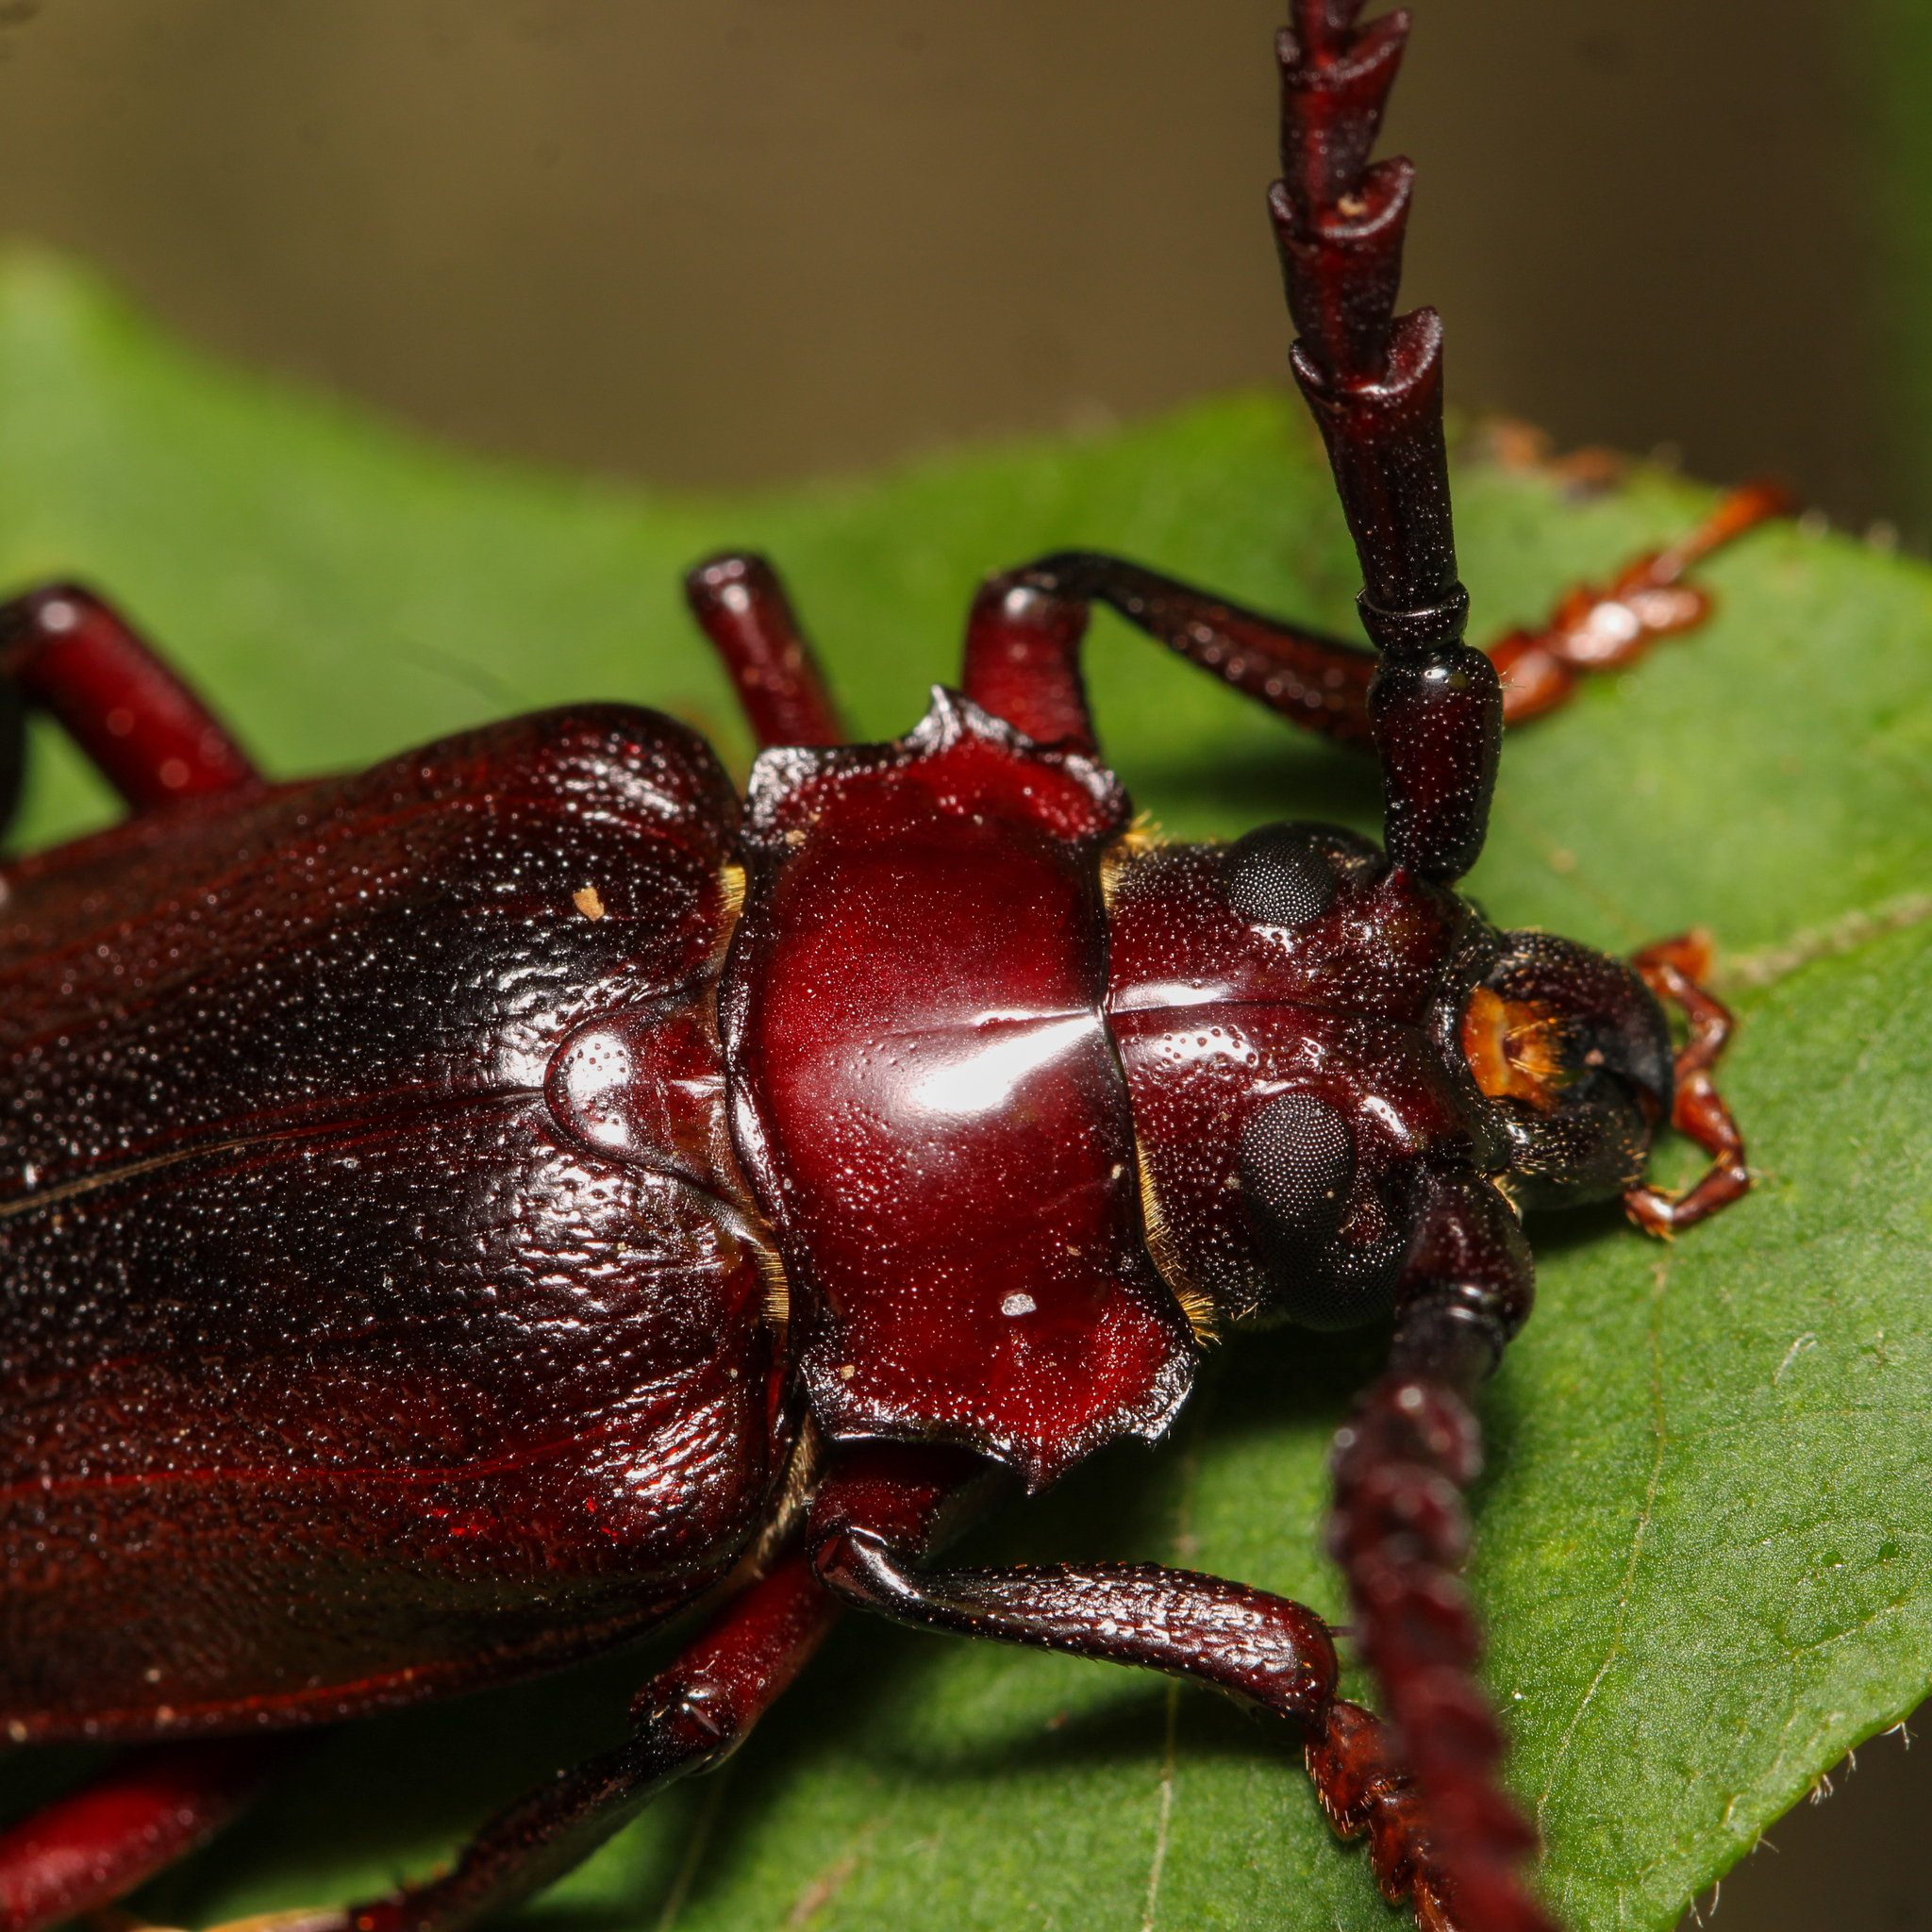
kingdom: Animalia
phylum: Arthropoda
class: Insecta
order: Coleoptera
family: Cerambycidae
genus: Prionus
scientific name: Prionus laticollis
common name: Broad necked prionus
